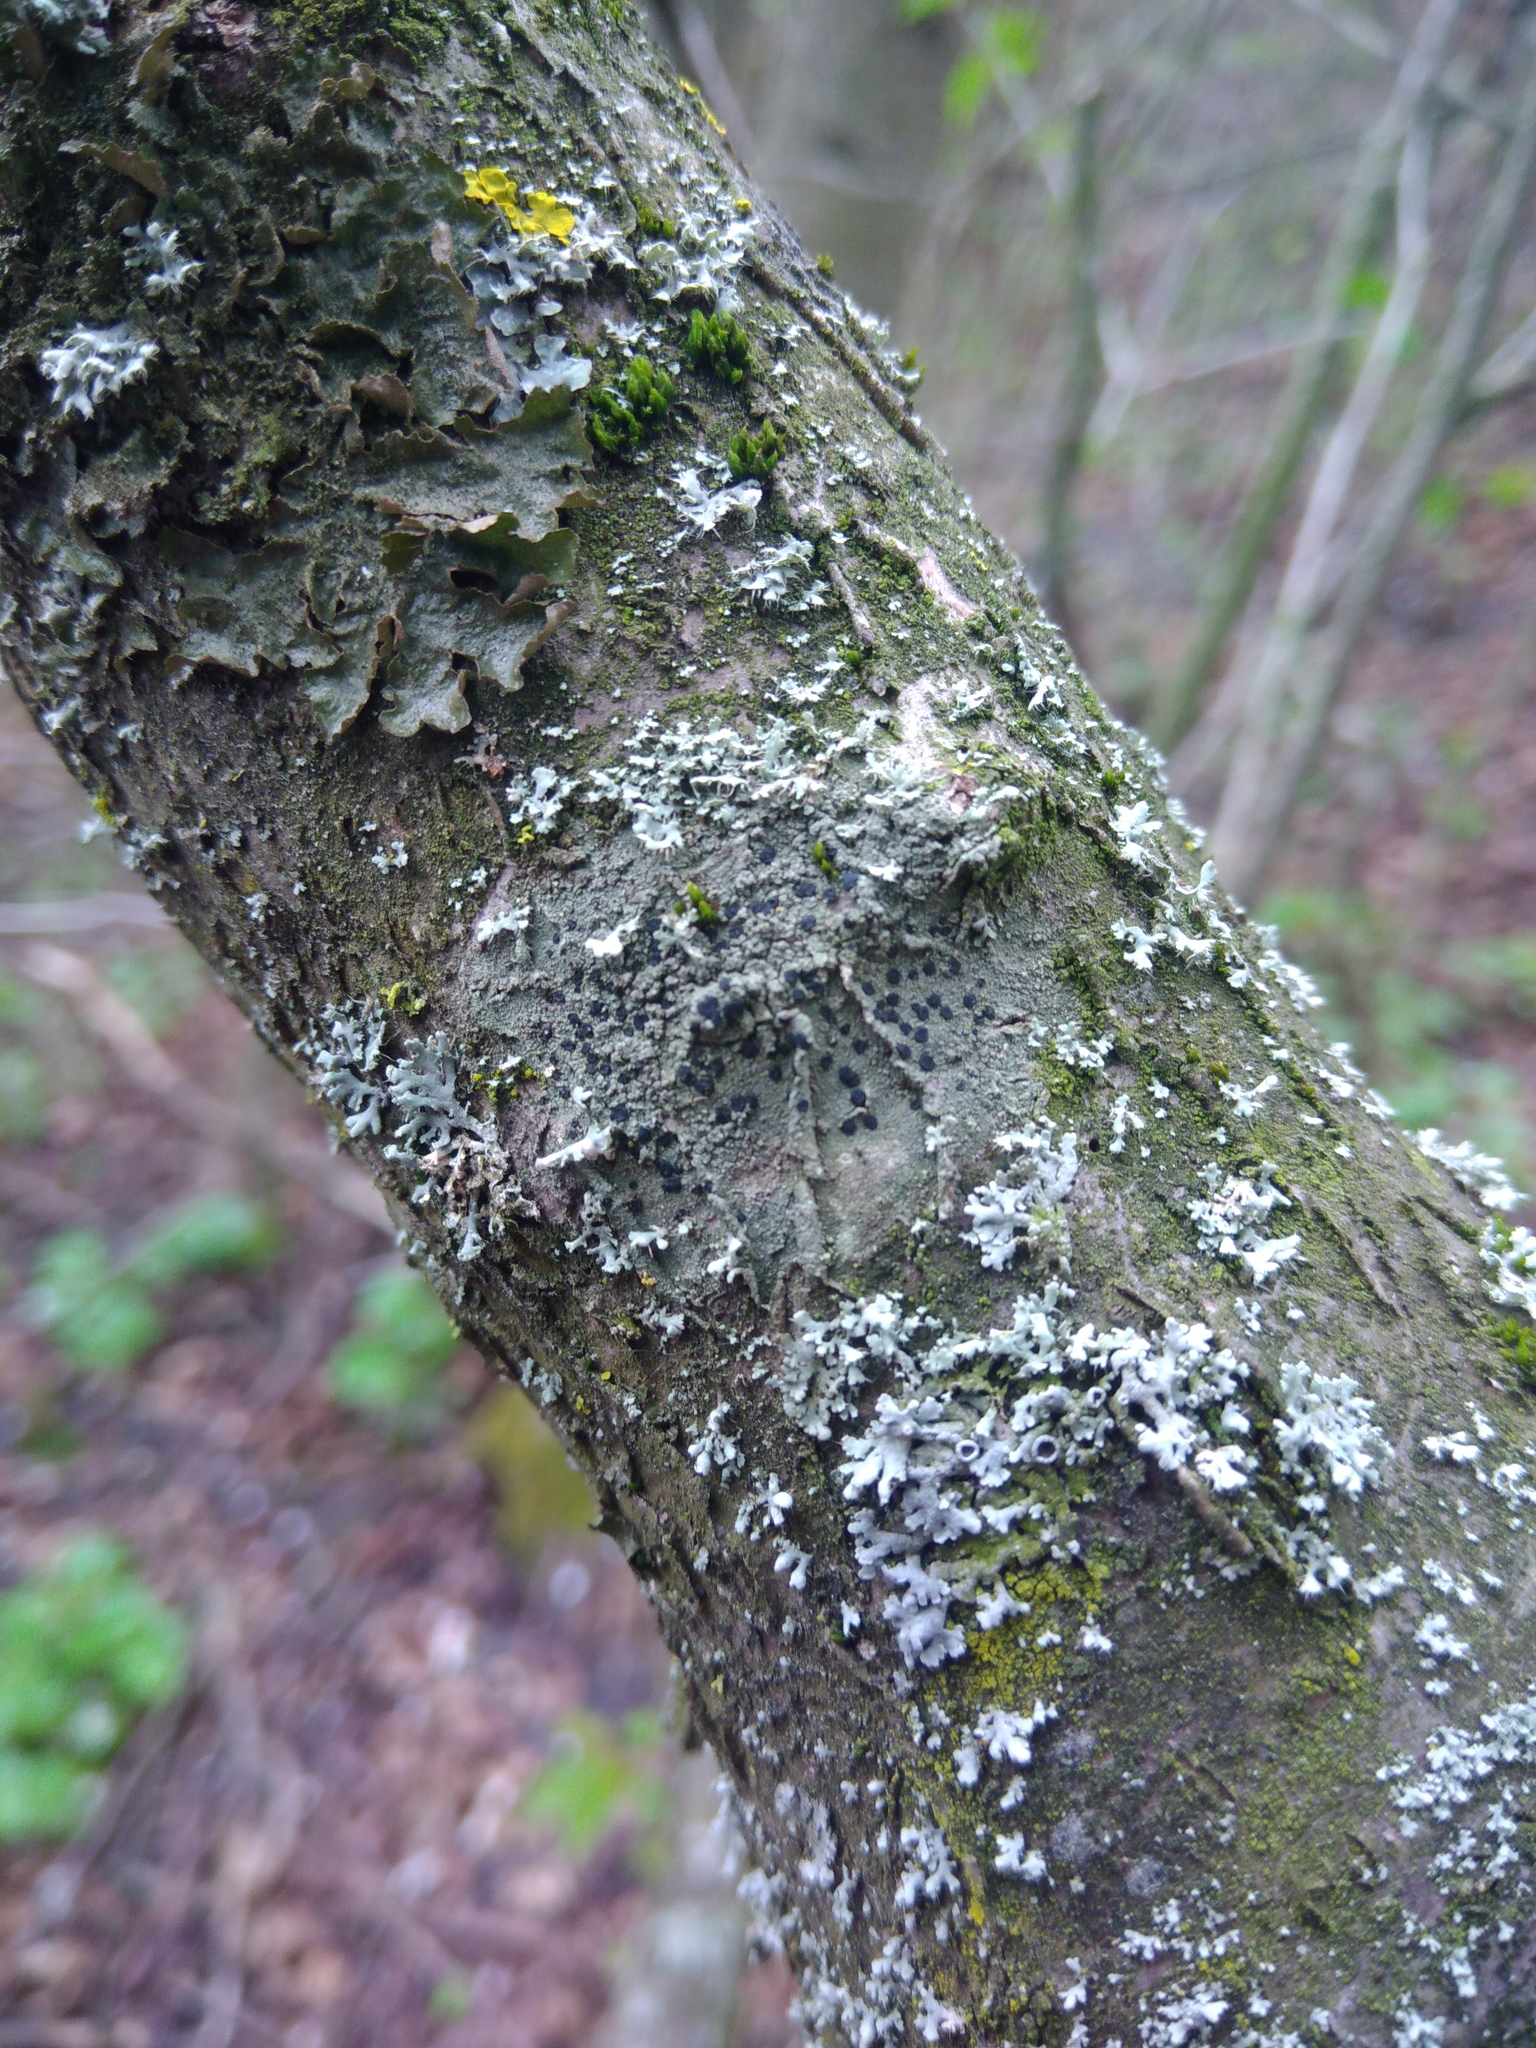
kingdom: Fungi
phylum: Ascomycota
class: Lecanoromycetes
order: Lecanorales
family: Lecanoraceae
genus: Lecidella
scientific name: Lecidella elaeochroma
